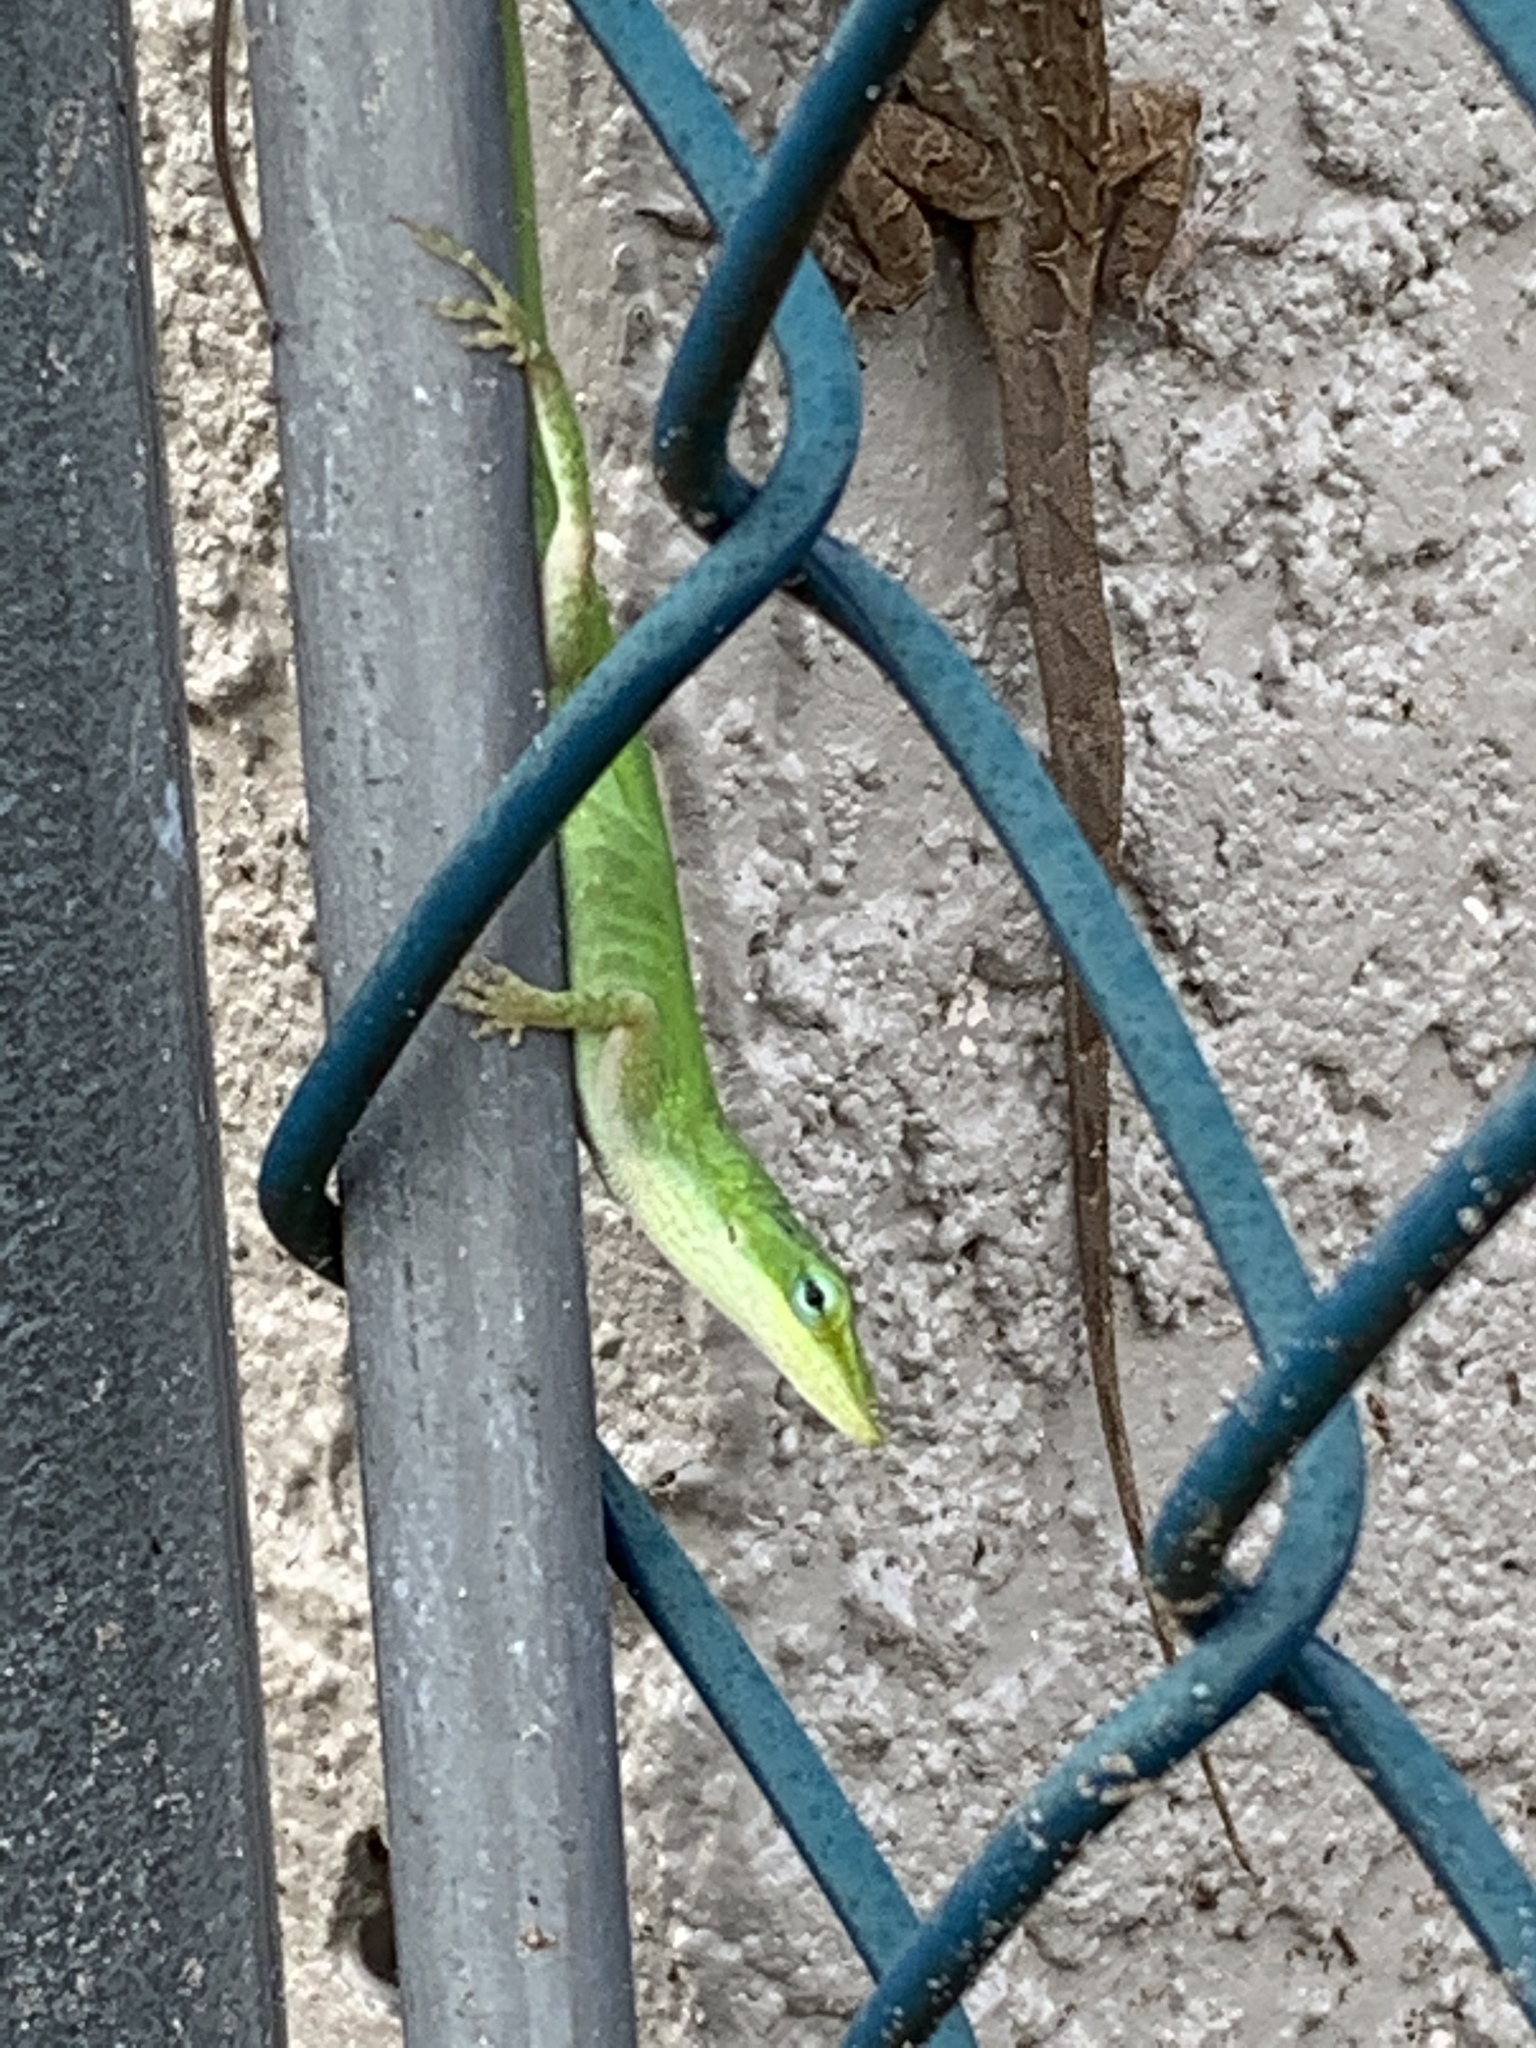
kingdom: Animalia
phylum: Chordata
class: Squamata
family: Dactyloidae
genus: Anolis
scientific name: Anolis carolinensis
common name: Green anole
